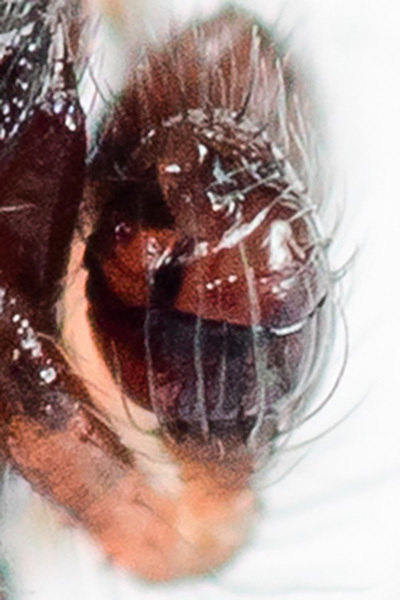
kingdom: Animalia
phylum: Arthropoda
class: Arachnida
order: Araneae
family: Theridiidae
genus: Theridion
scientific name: Theridion mystaceum
